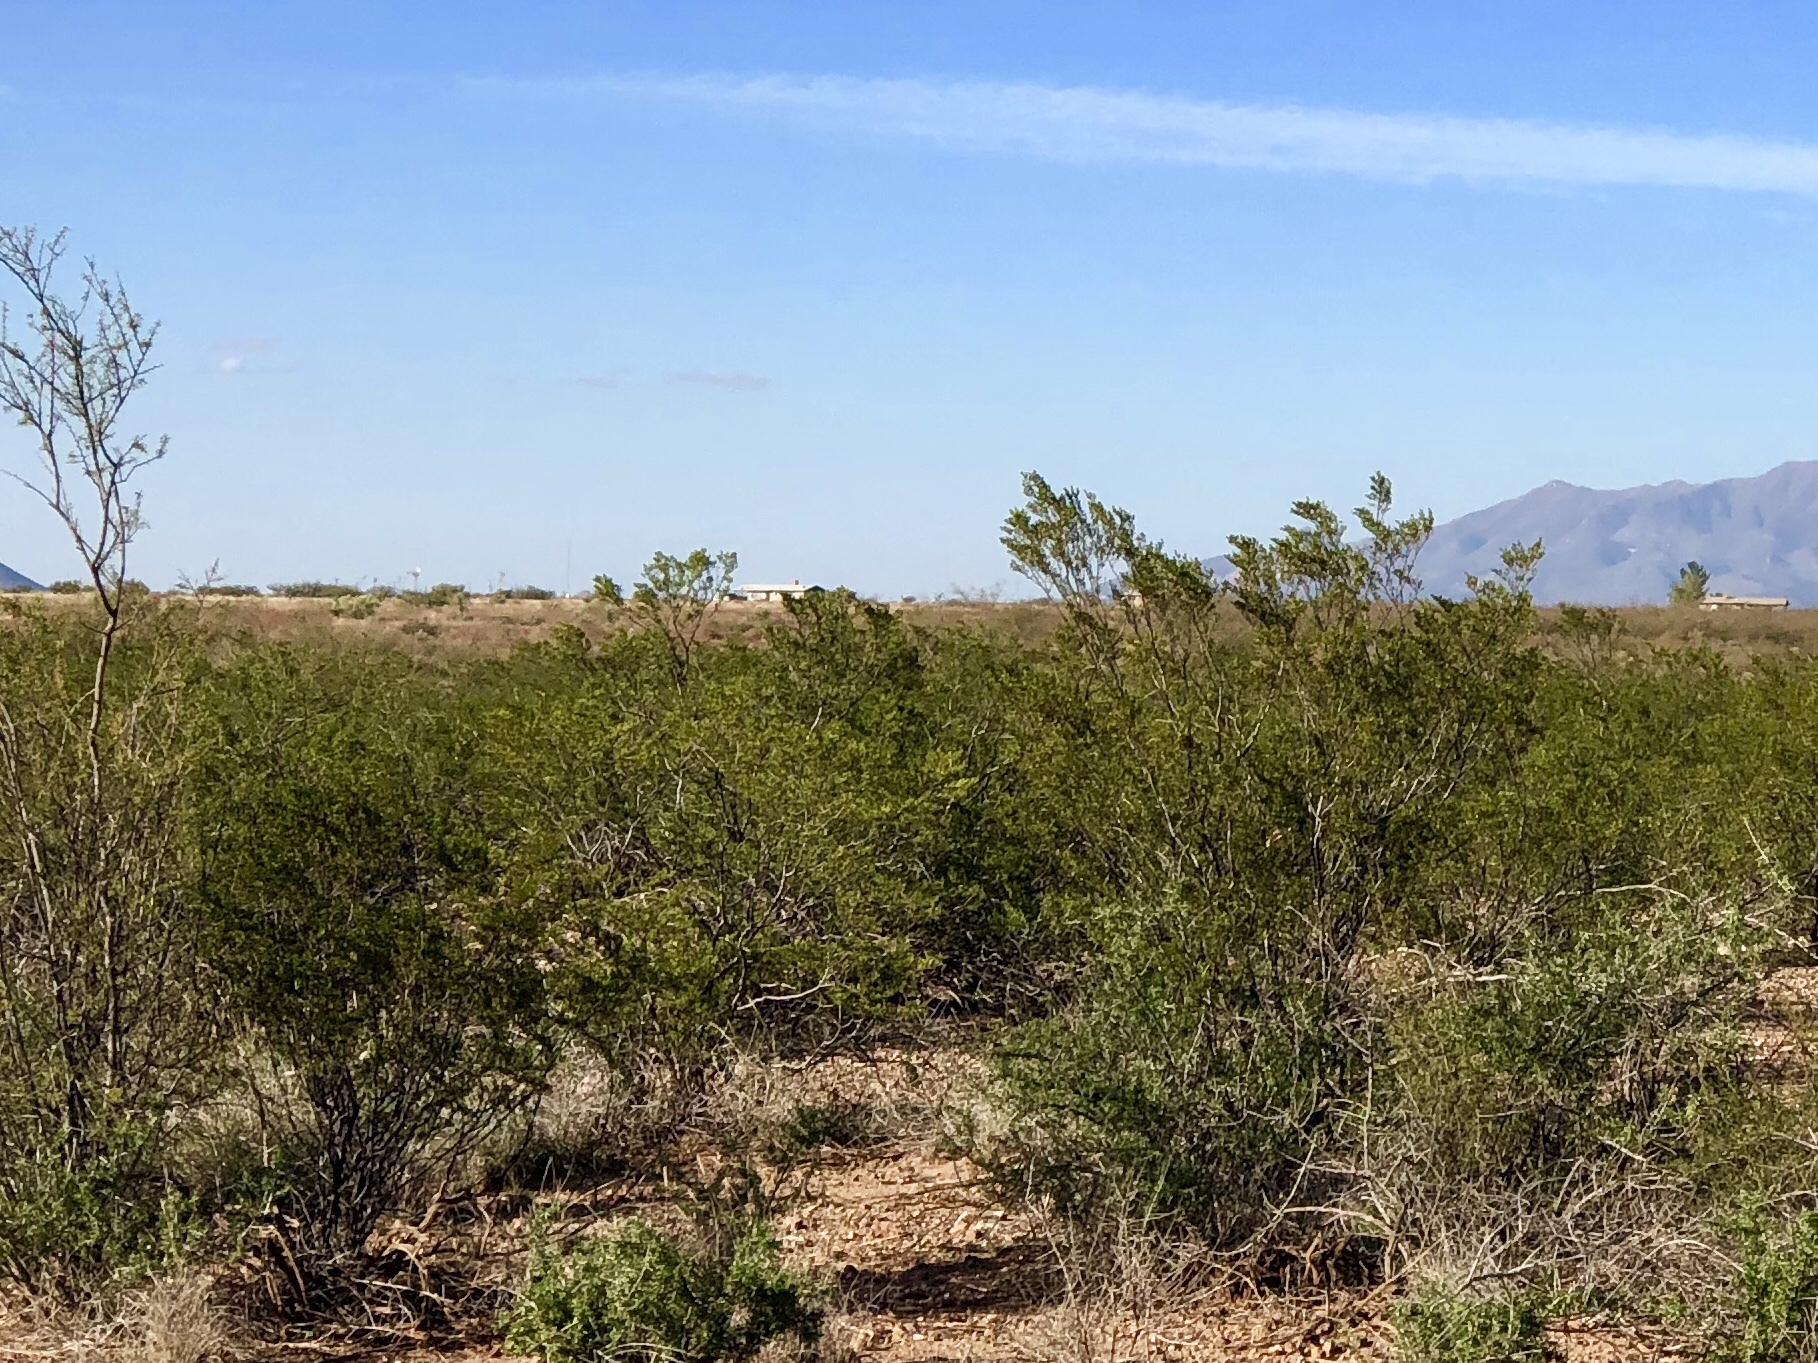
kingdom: Plantae
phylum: Tracheophyta
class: Magnoliopsida
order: Zygophyllales
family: Zygophyllaceae
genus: Larrea
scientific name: Larrea tridentata
